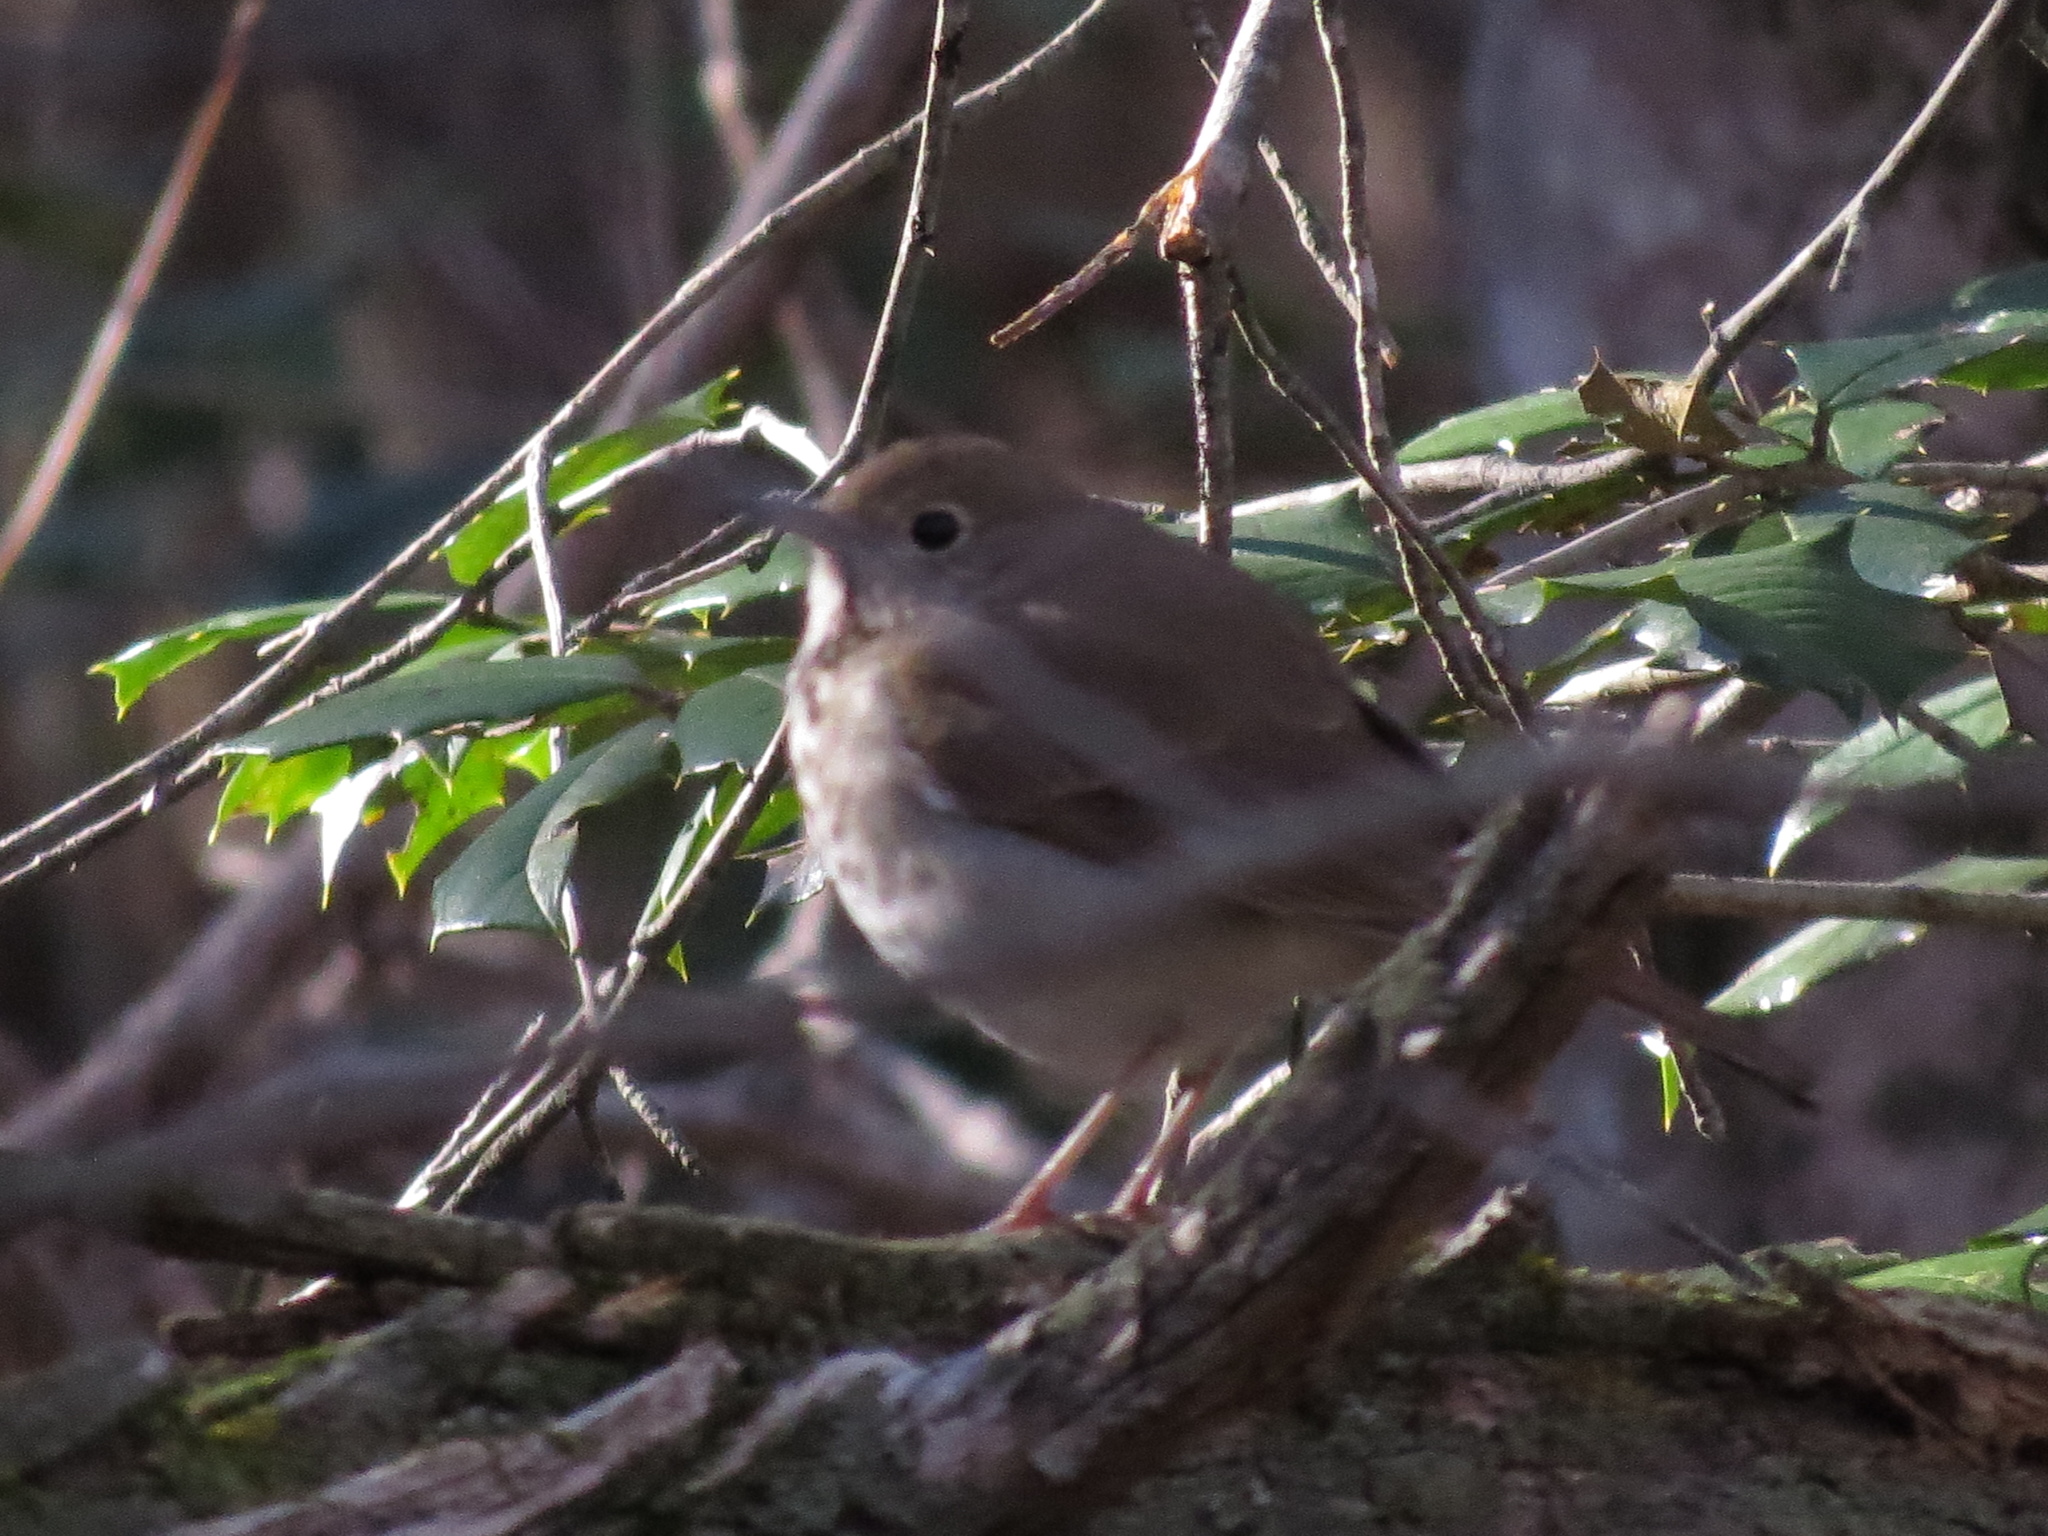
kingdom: Animalia
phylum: Chordata
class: Aves
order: Passeriformes
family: Turdidae
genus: Catharus
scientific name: Catharus guttatus
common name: Hermit thrush
